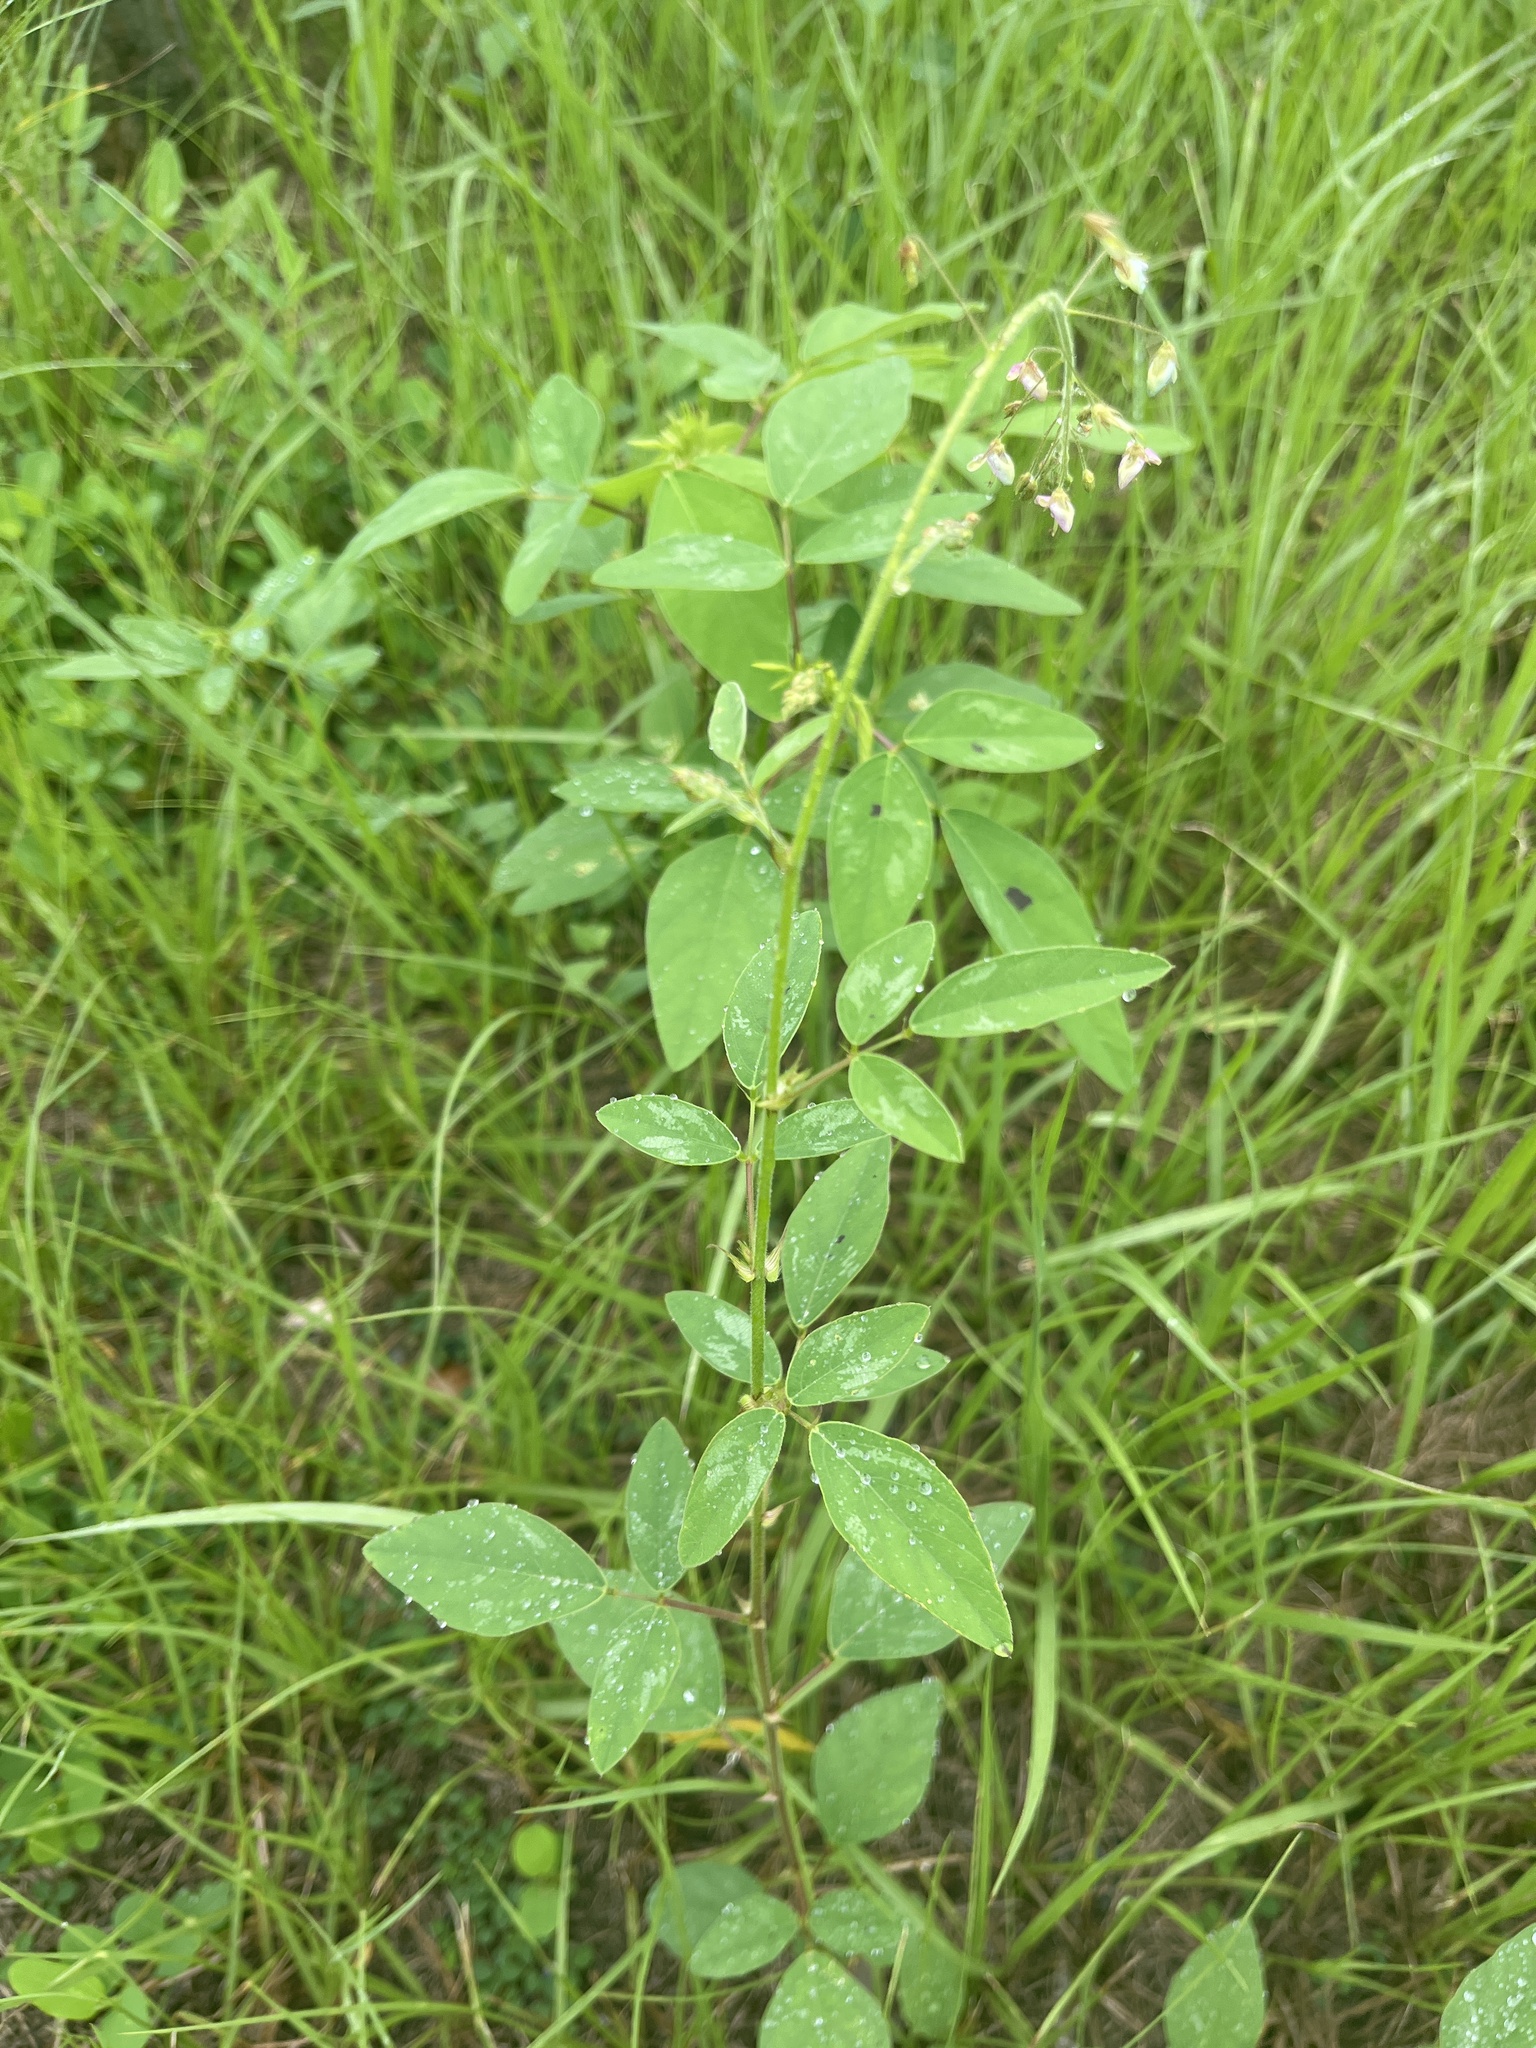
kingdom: Plantae
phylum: Tracheophyta
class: Magnoliopsida
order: Fabales
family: Fabaceae
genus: Desmodium
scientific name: Desmodium tortuosum
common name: Dixie ticktrefoil
